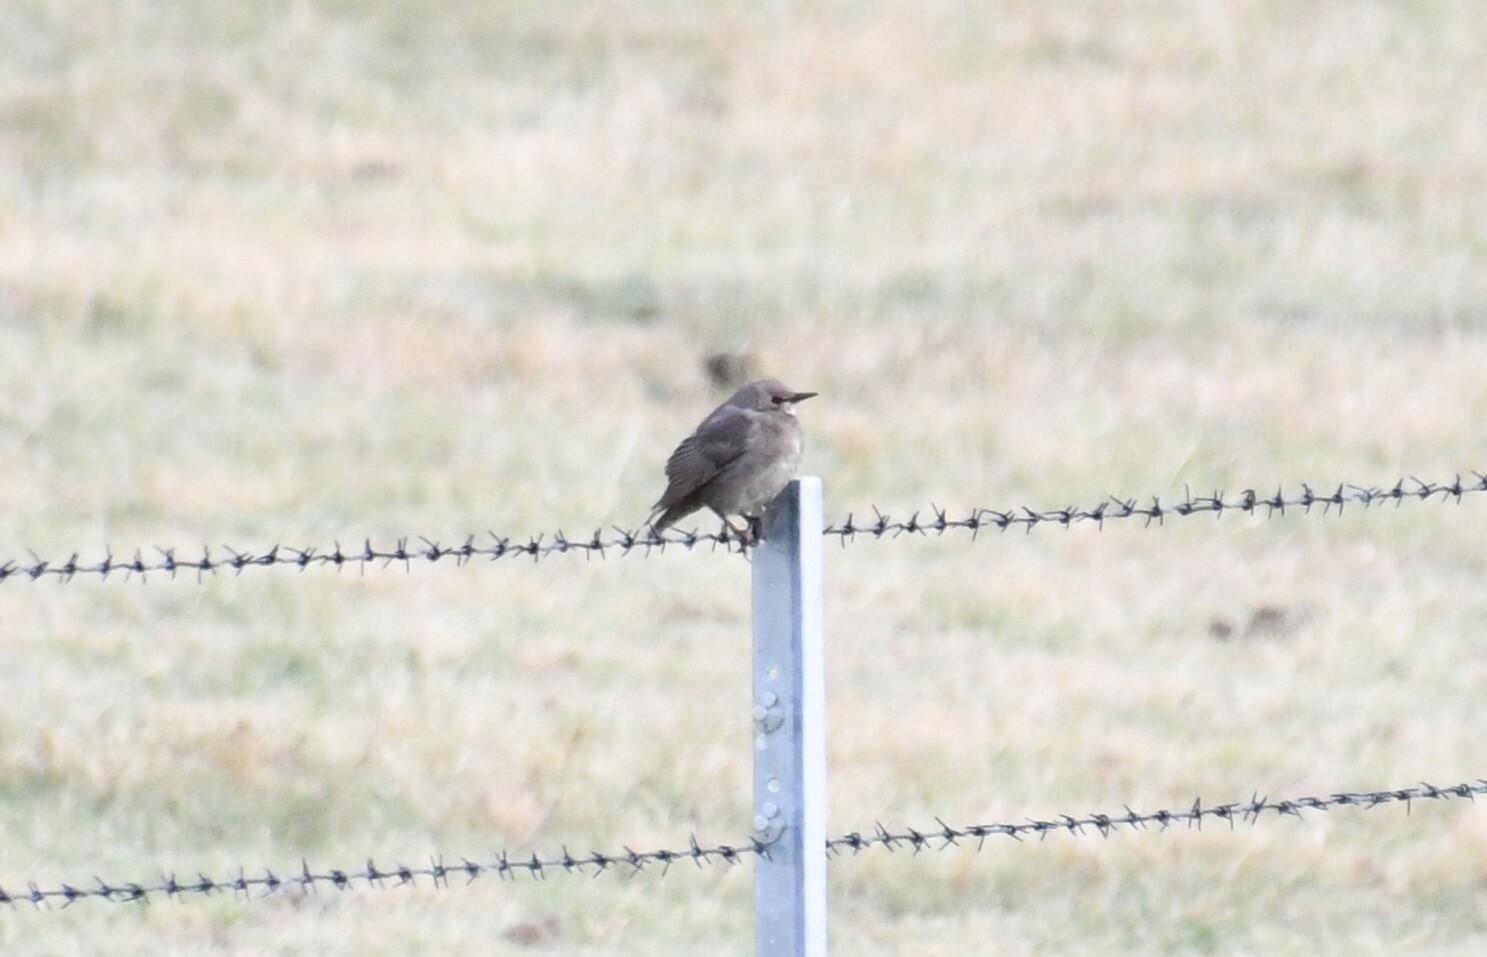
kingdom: Animalia
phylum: Chordata
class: Aves
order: Passeriformes
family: Sturnidae
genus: Sturnus
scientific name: Sturnus vulgaris
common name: Common starling
